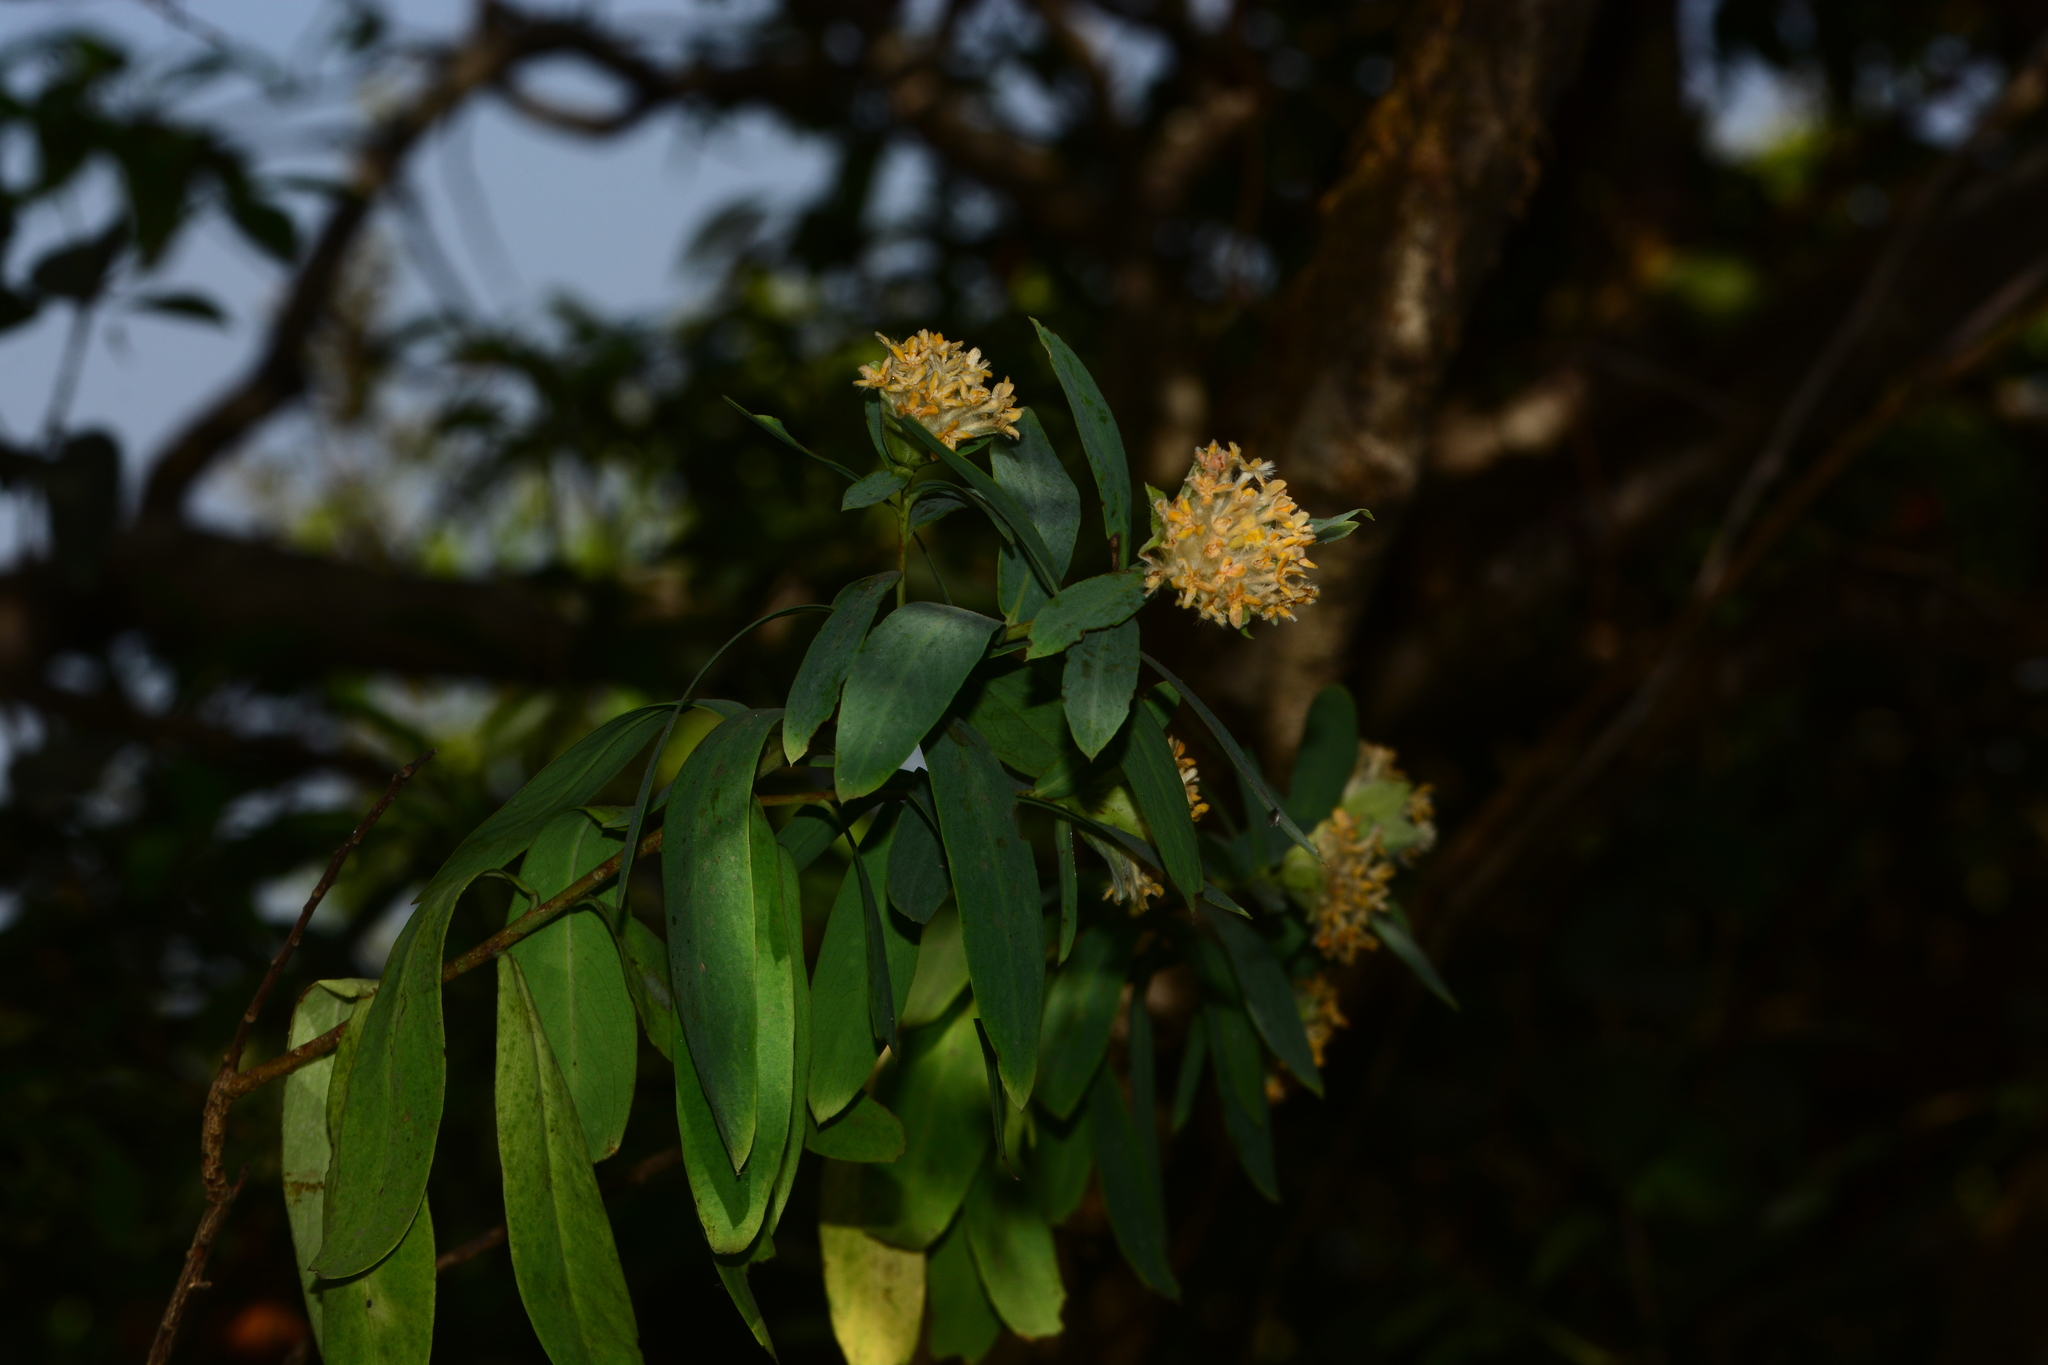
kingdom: Plantae
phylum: Tracheophyta
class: Magnoliopsida
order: Malvales
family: Thymelaeaceae
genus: Gnidia
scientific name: Gnidia glauca
